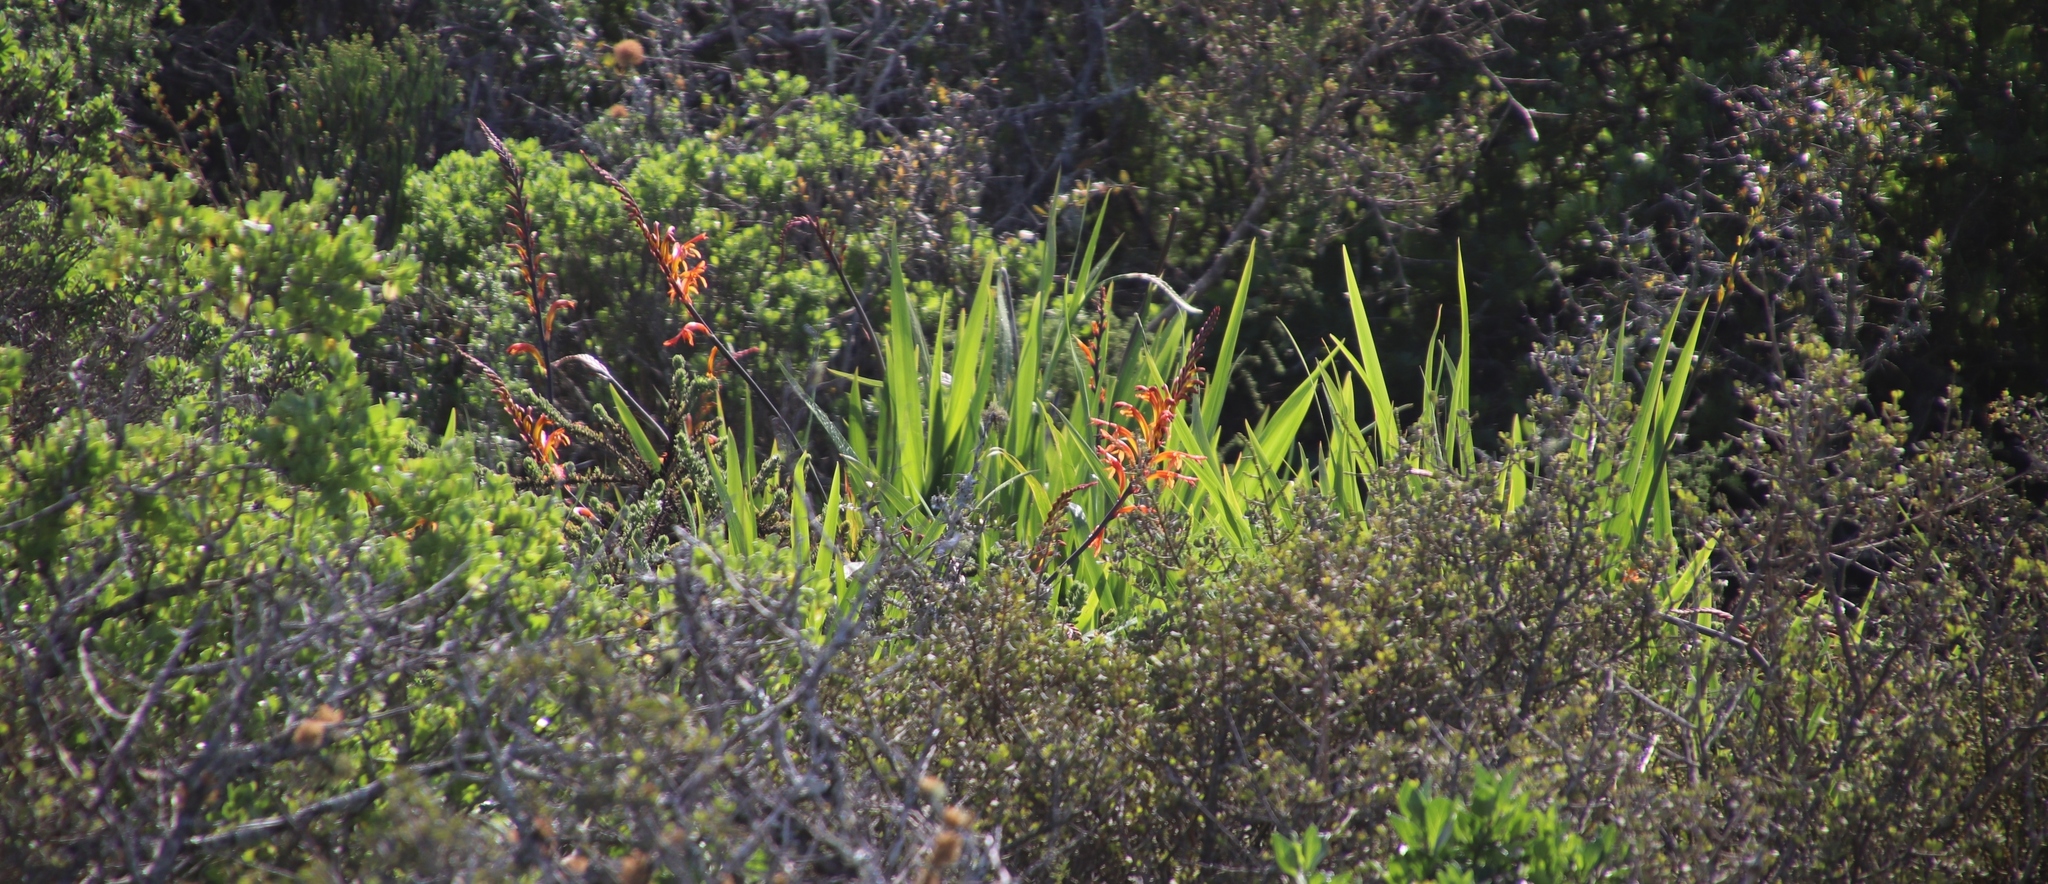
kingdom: Plantae
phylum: Tracheophyta
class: Liliopsida
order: Asparagales
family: Iridaceae
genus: Chasmanthe
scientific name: Chasmanthe floribunda
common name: African cornflag
